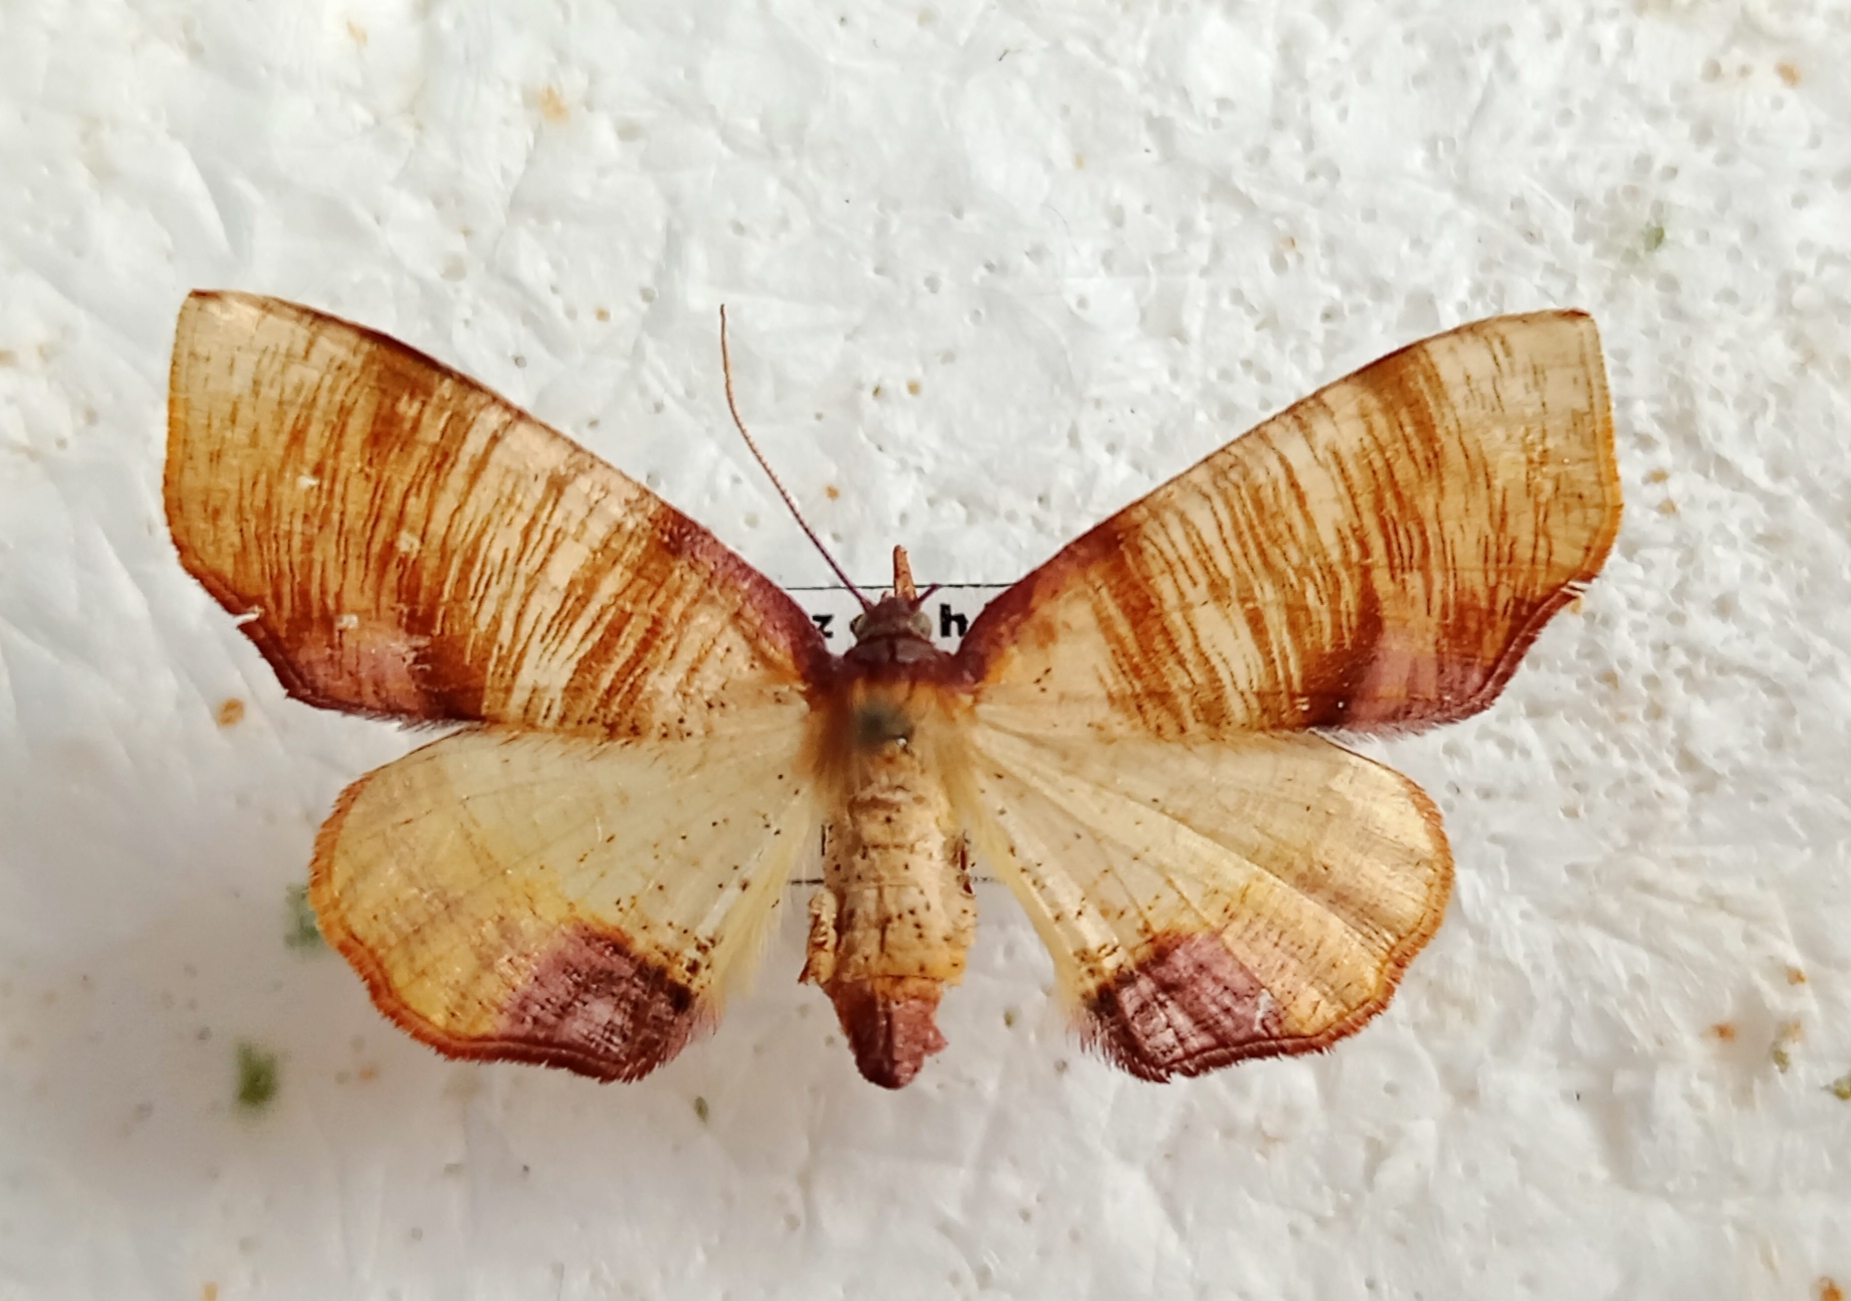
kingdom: Animalia
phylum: Arthropoda
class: Insecta
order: Lepidoptera
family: Geometridae
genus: Plagodis
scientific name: Plagodis dolabraria
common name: Scorched wing
